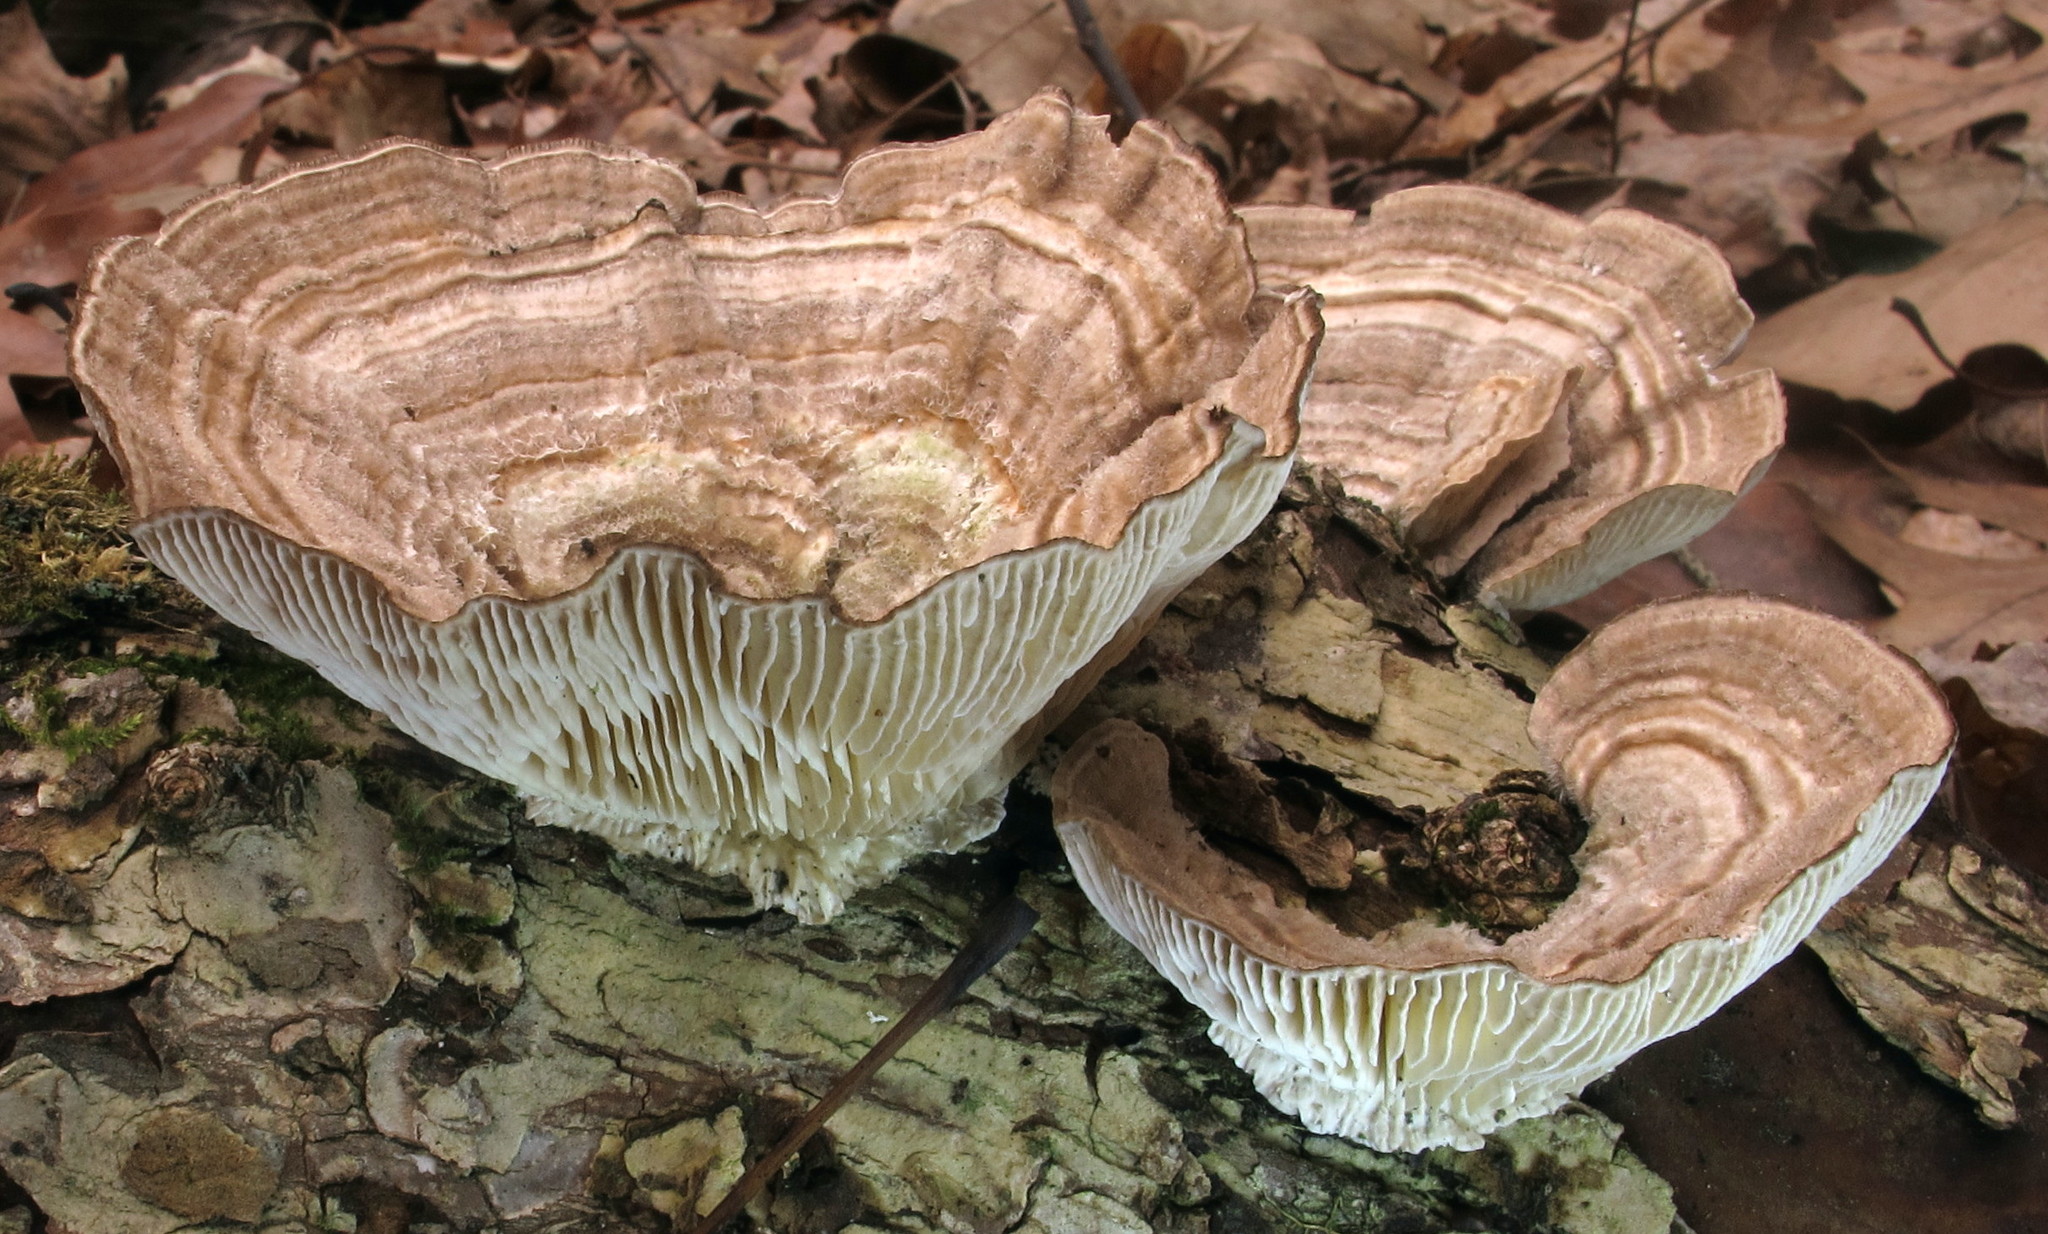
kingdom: Fungi
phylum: Basidiomycota
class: Agaricomycetes
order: Polyporales
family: Polyporaceae
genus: Lenzites
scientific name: Lenzites betulinus
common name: Birch mazegill
